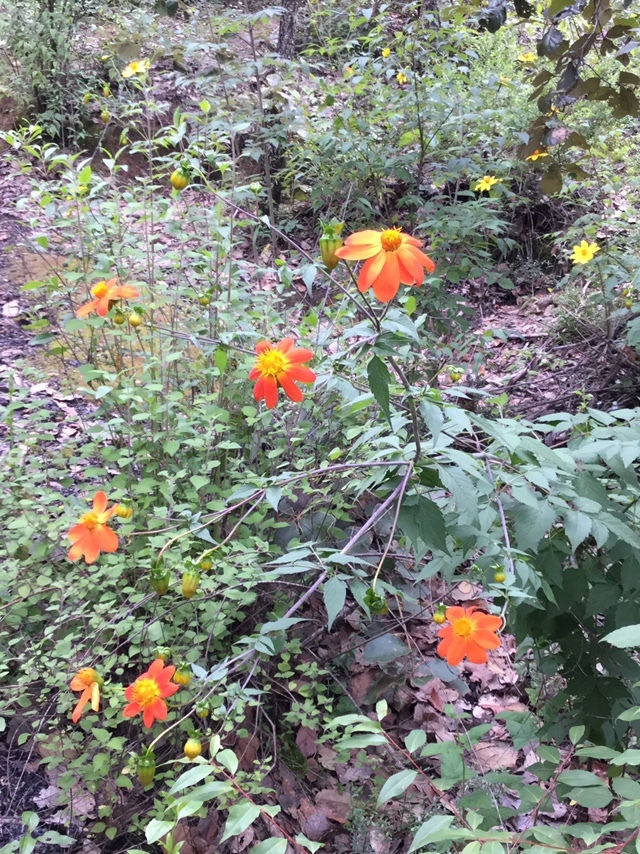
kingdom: Plantae
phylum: Tracheophyta
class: Magnoliopsida
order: Asterales
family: Asteraceae
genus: Dahlia
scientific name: Dahlia coccinea
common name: Red dahlia
